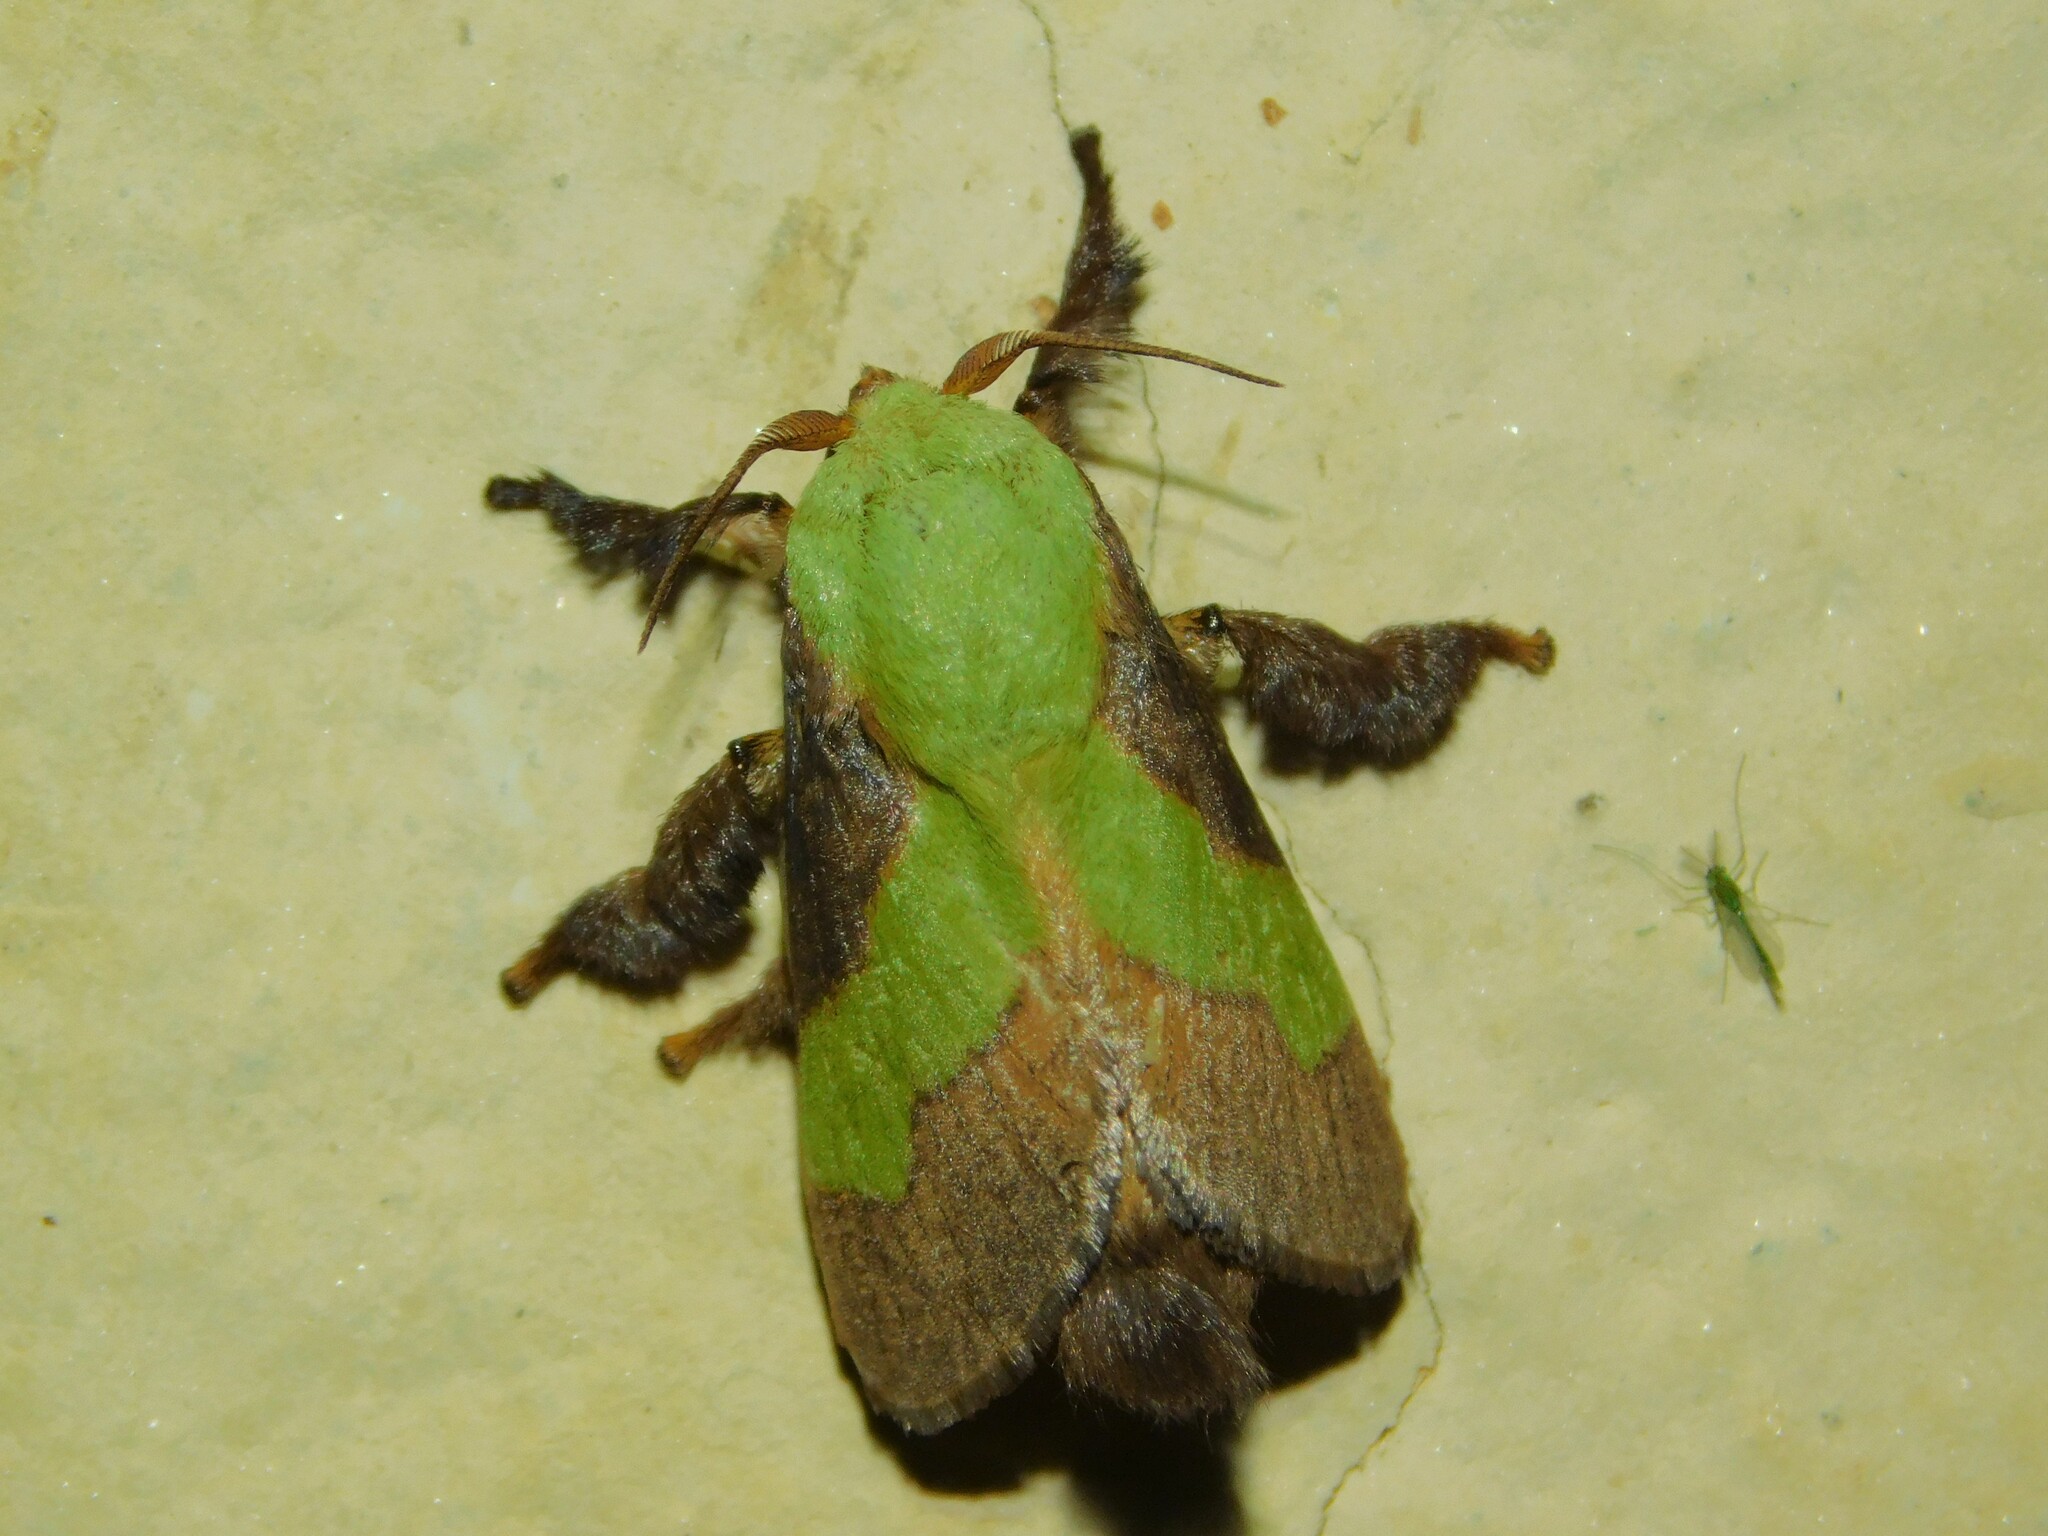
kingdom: Animalia
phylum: Arthropoda
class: Insecta
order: Lepidoptera
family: Limacodidae
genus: Parasa
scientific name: Parasa trapezoidea
